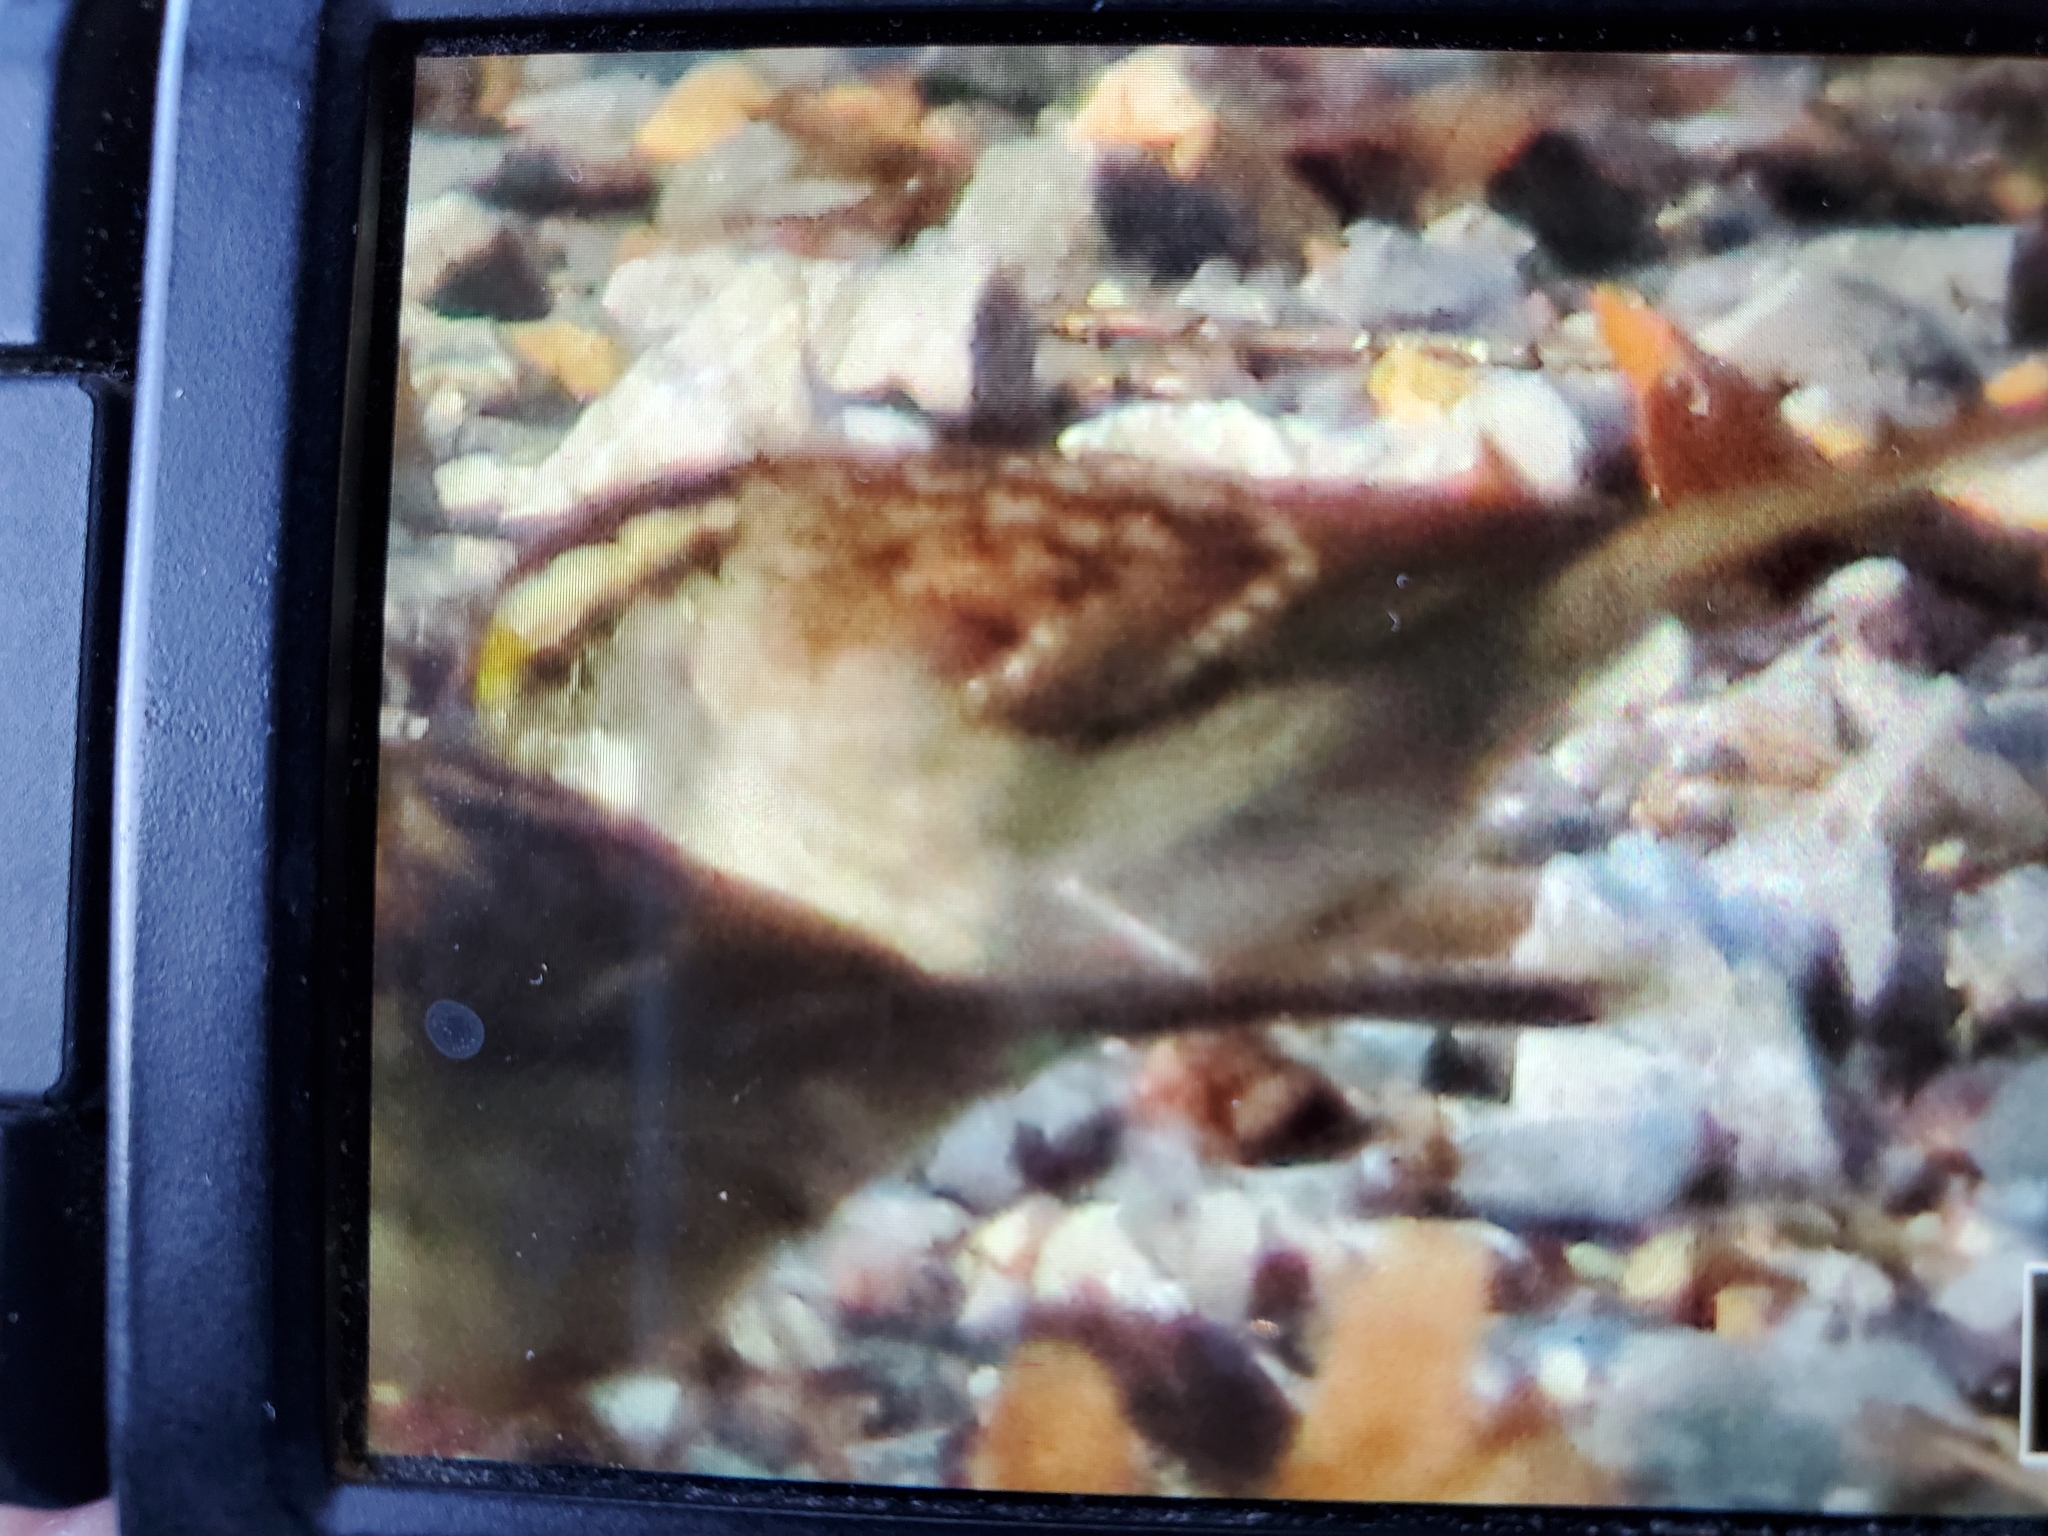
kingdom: Animalia
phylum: Chordata
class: Aves
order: Passeriformes
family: Passerellidae
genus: Zonotrichia
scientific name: Zonotrichia albicollis
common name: White-throated sparrow
